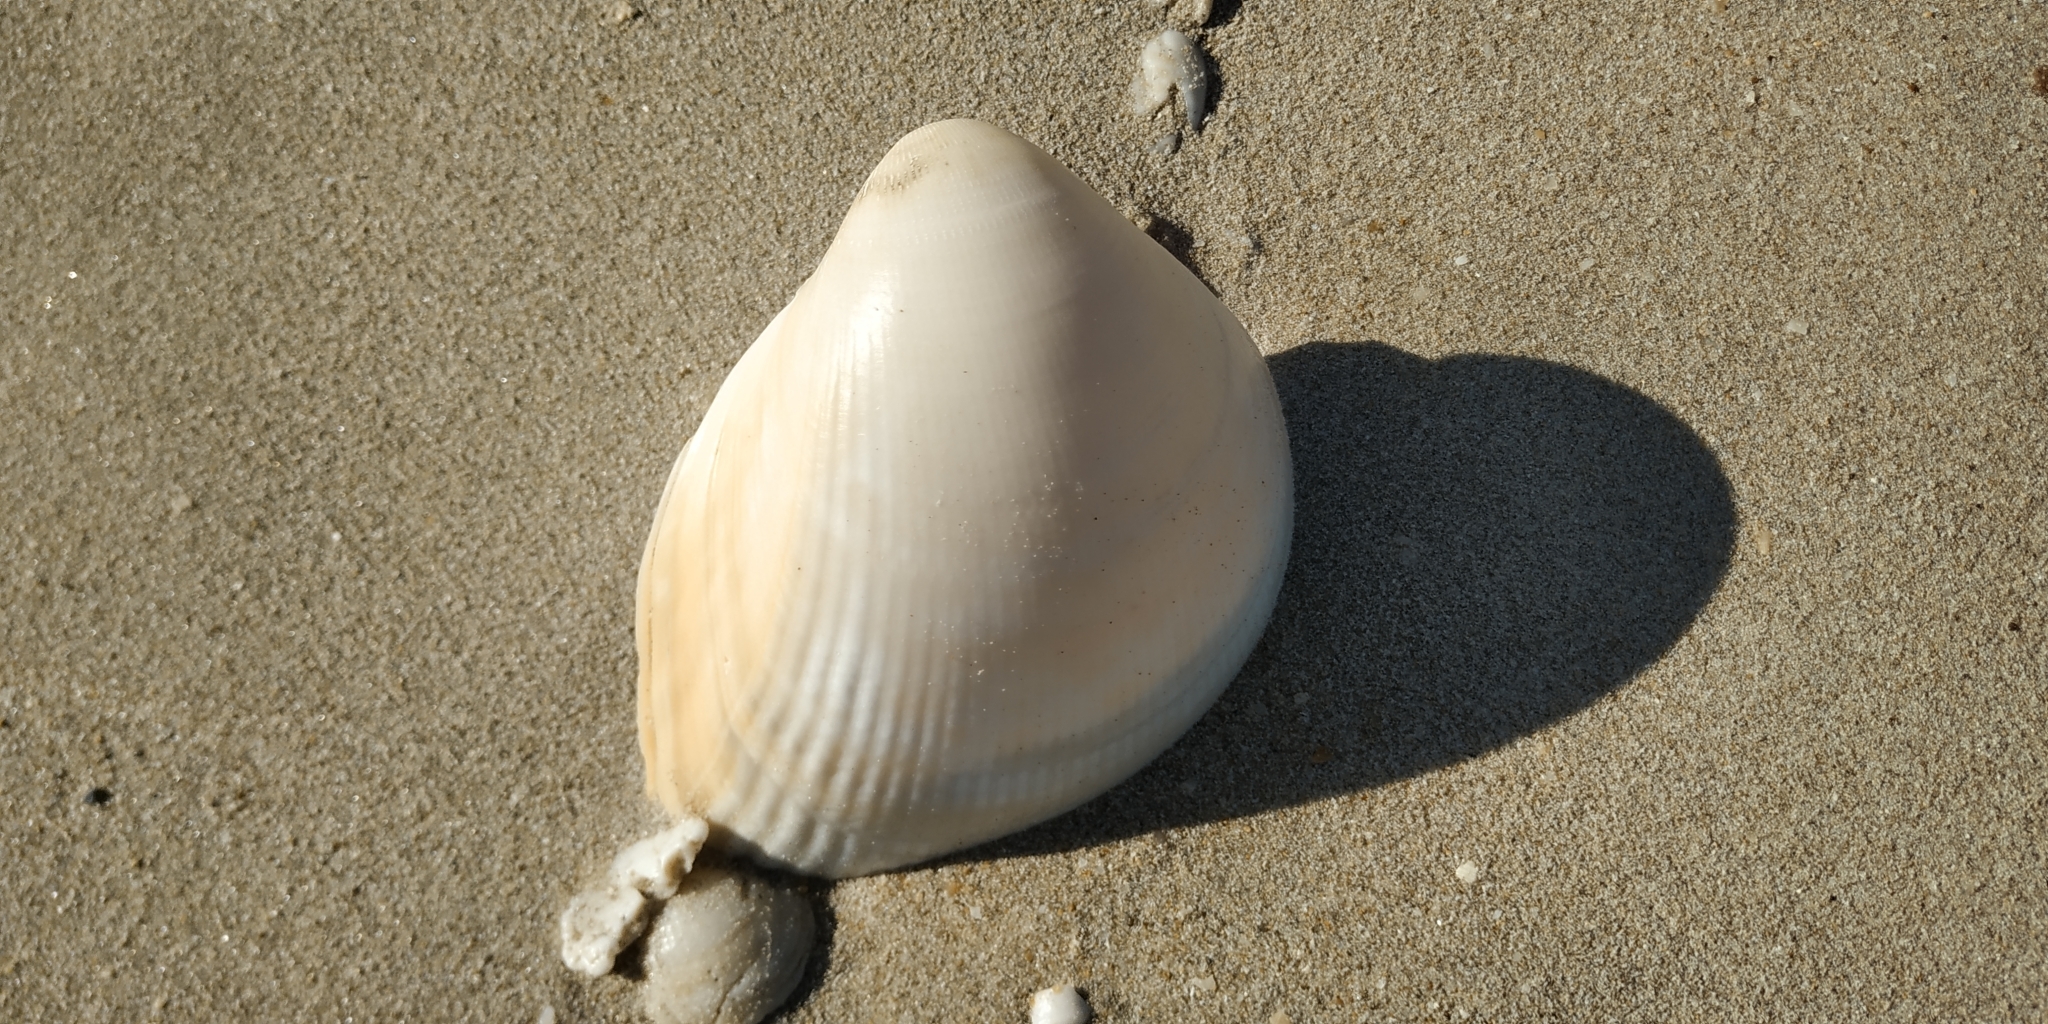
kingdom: Animalia
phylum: Mollusca
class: Bivalvia
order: Cardiida
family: Cardiidae
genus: Laevicardium
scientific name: Laevicardium elatum
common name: Giant pacific eggcockle
